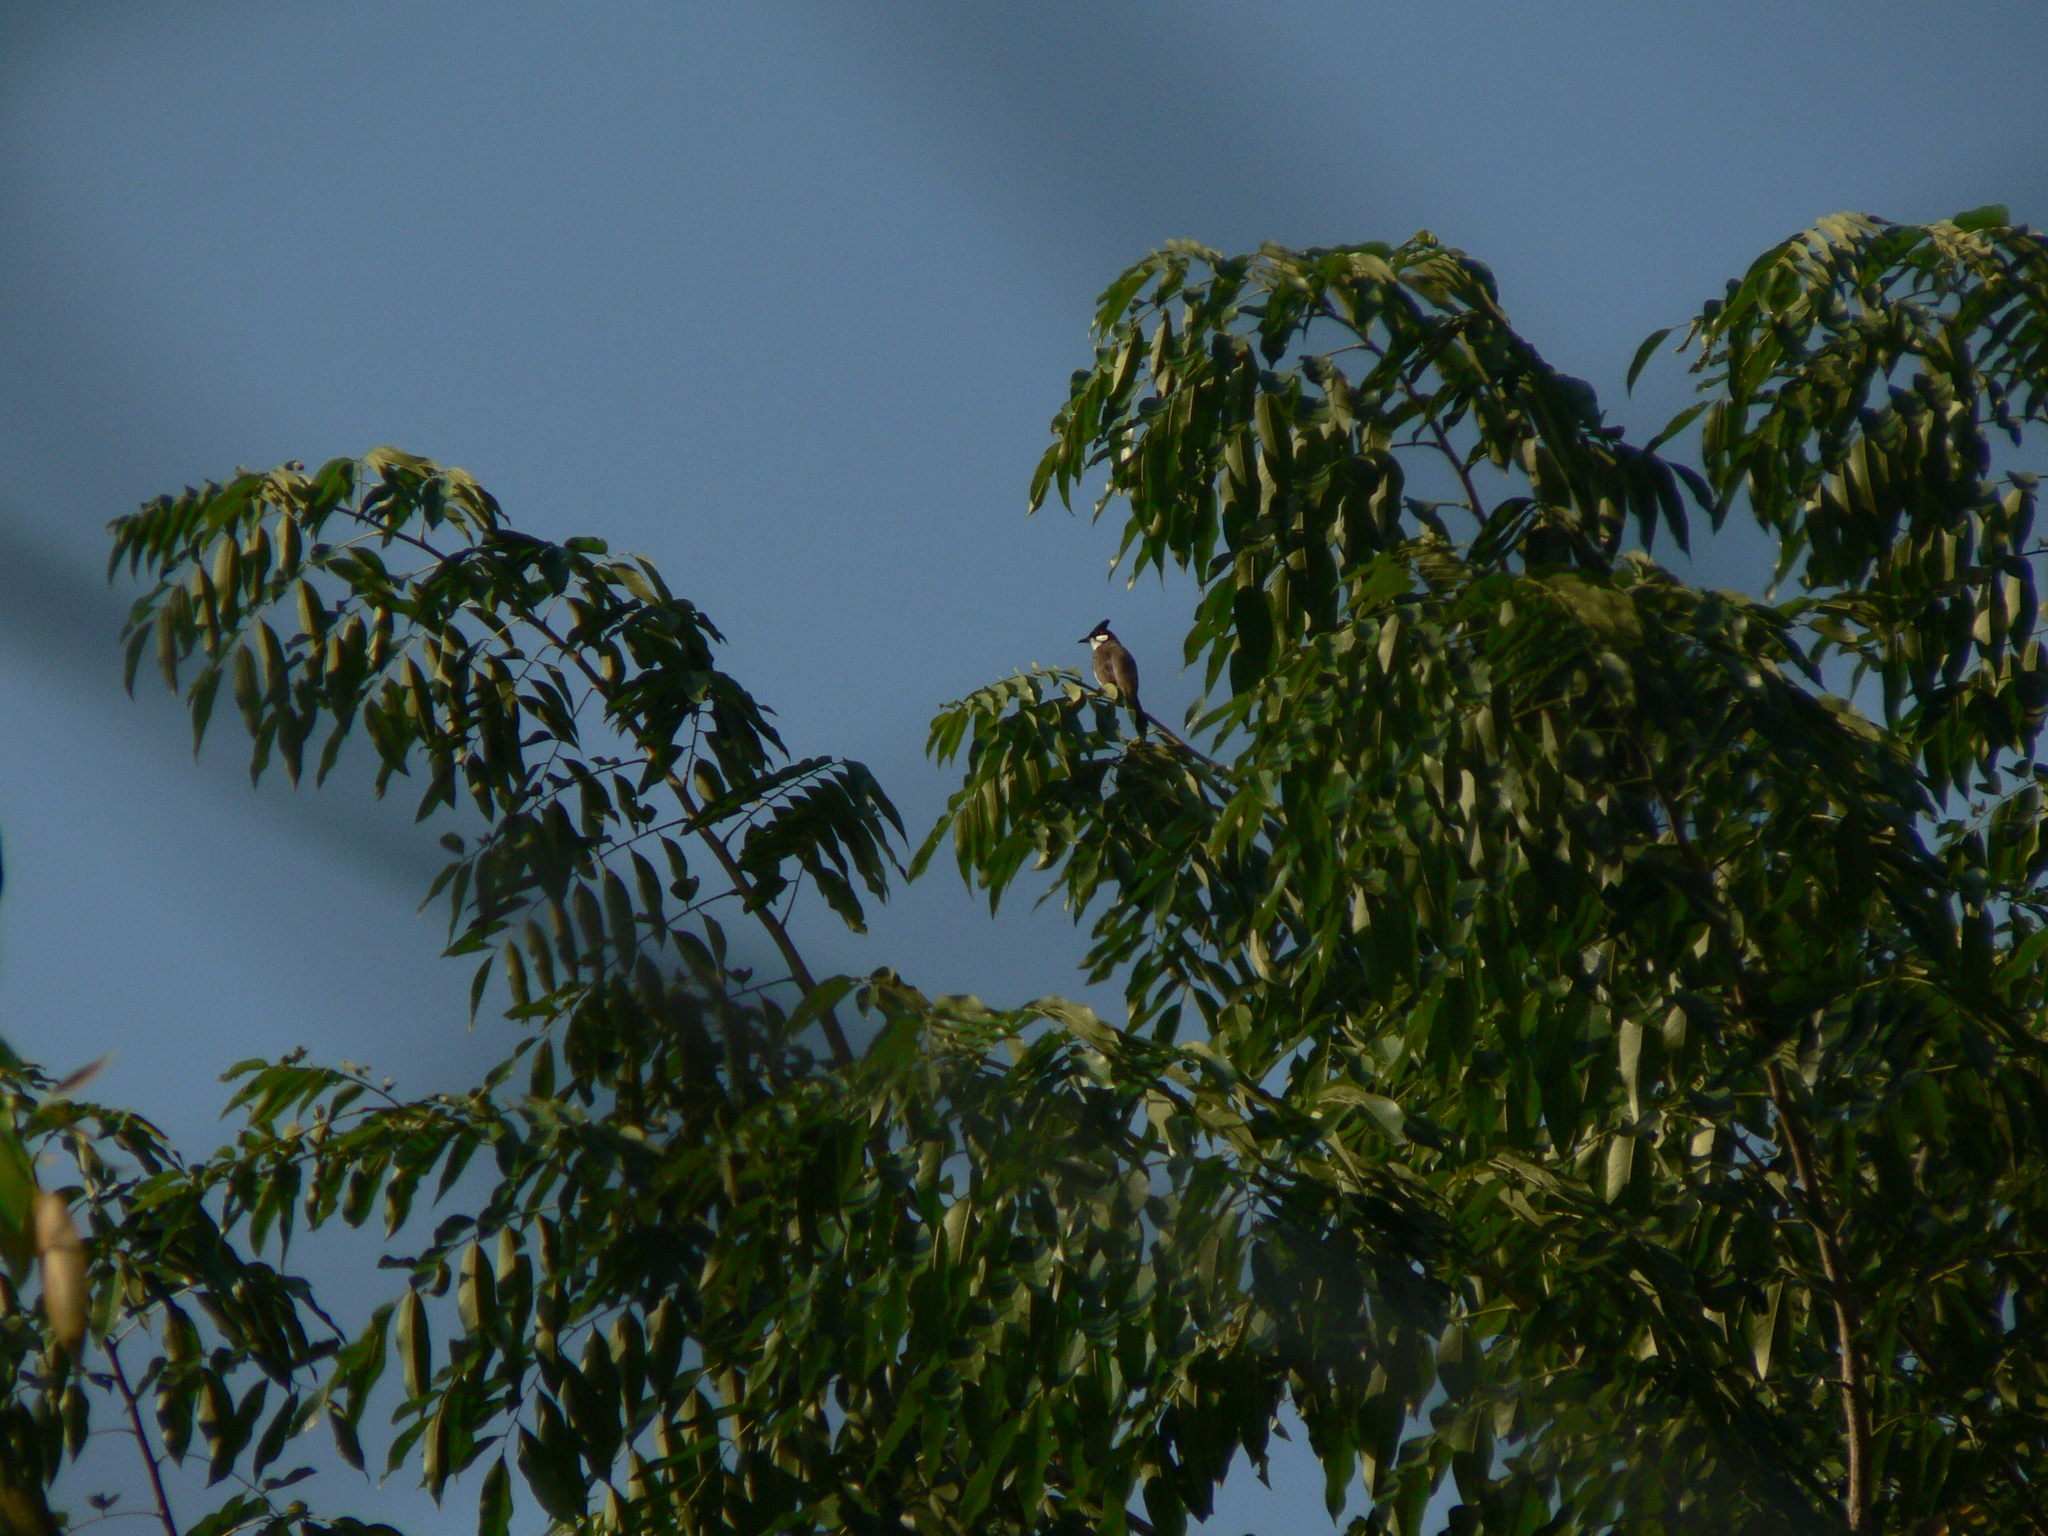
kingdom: Animalia
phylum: Chordata
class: Aves
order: Passeriformes
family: Pycnonotidae
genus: Pycnonotus
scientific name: Pycnonotus jocosus
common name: Red-whiskered bulbul
